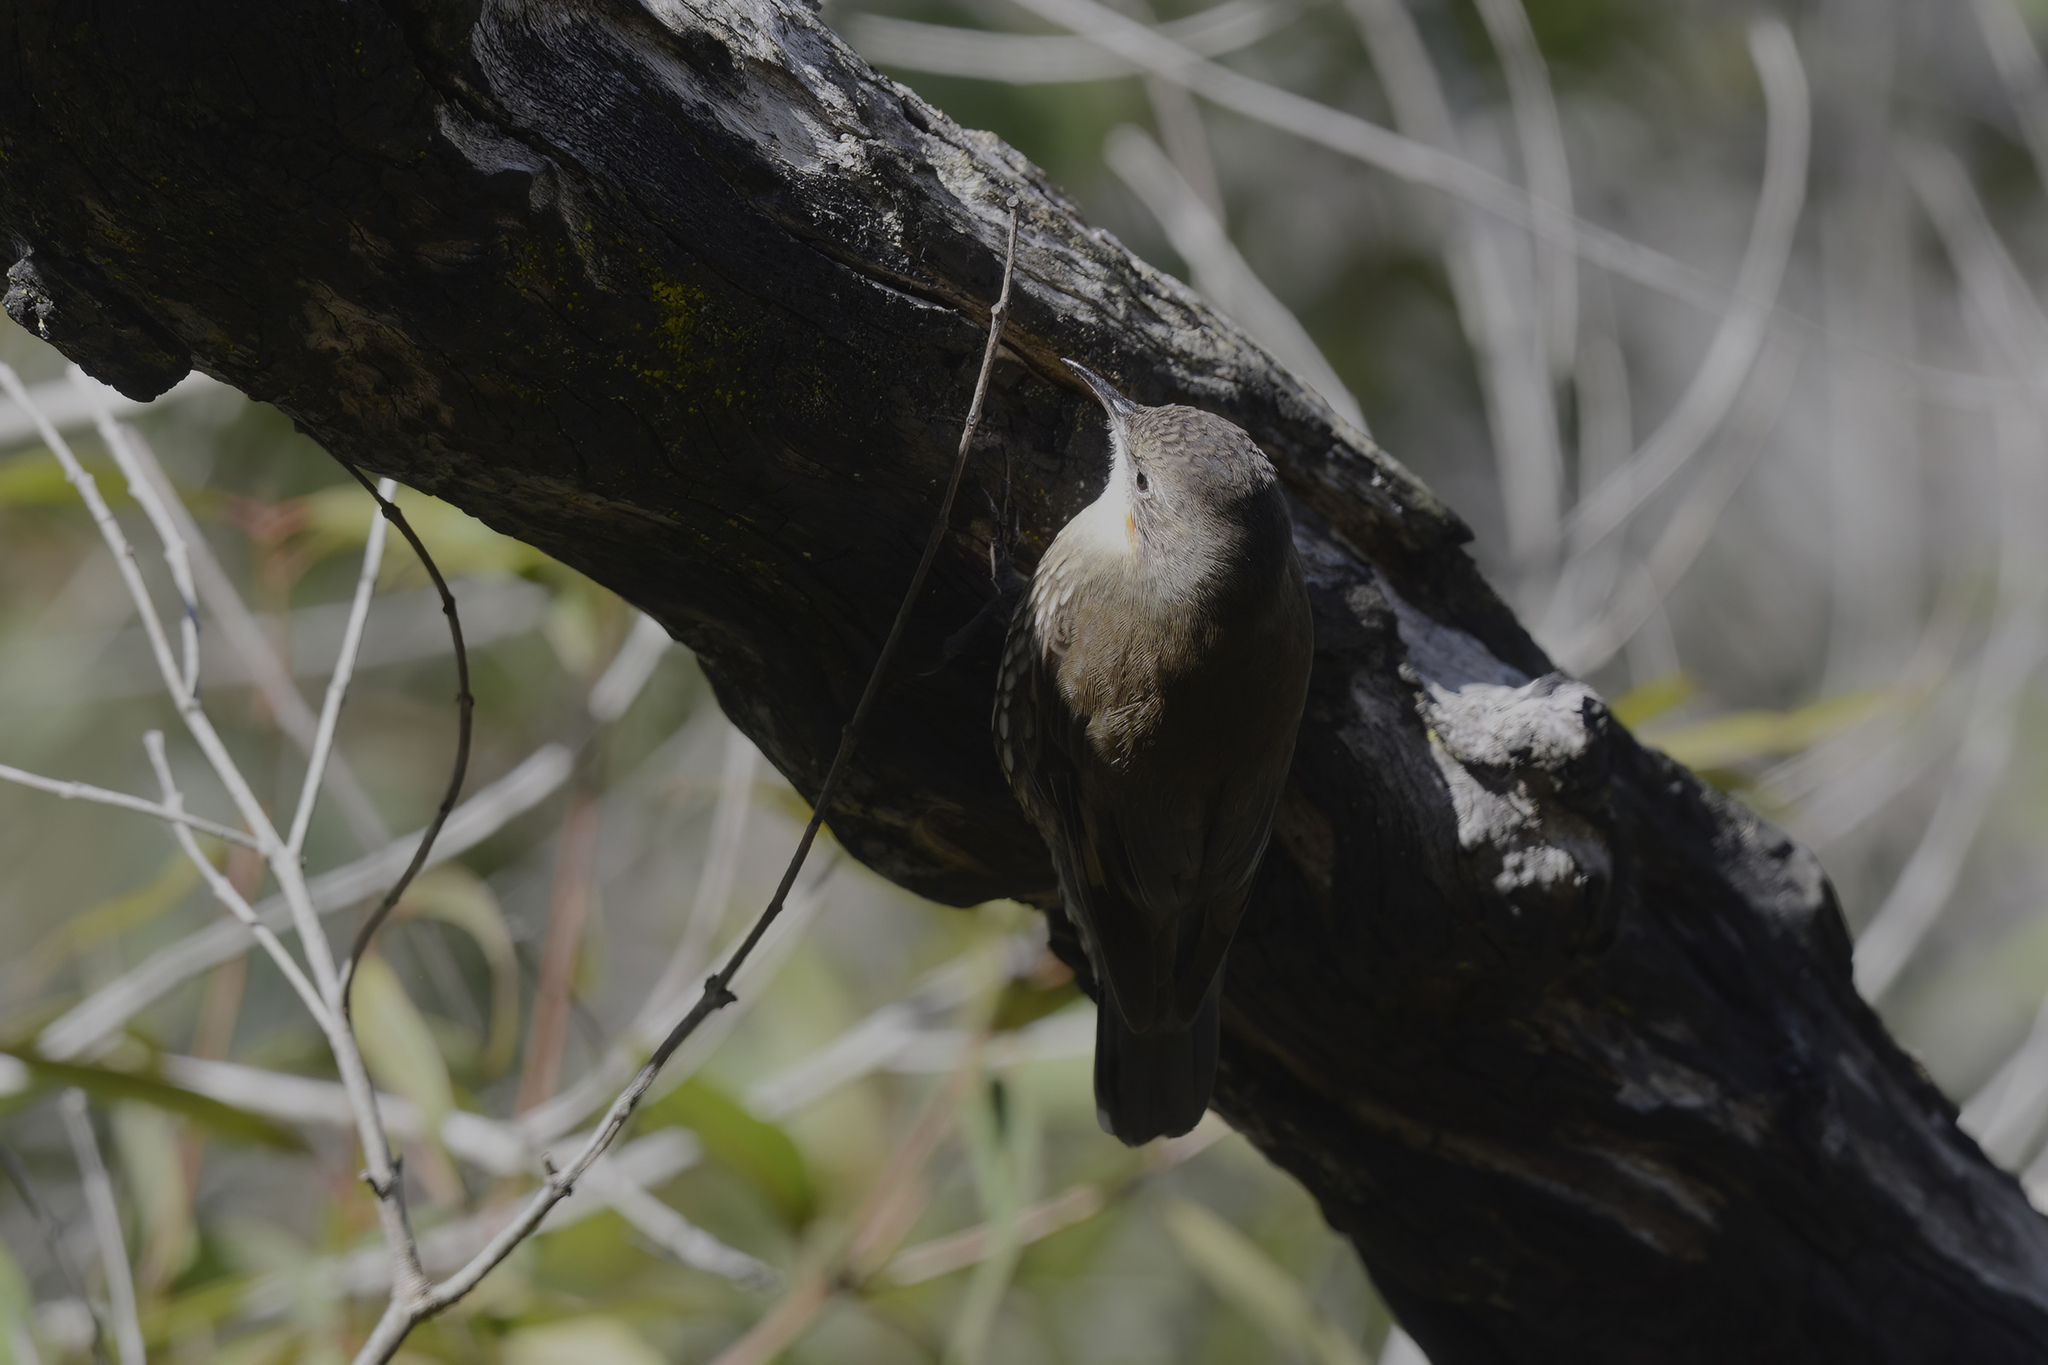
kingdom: Animalia
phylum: Chordata
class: Aves
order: Passeriformes
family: Climacteridae
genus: Cormobates
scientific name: Cormobates leucophaea
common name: White-throated treecreeper
